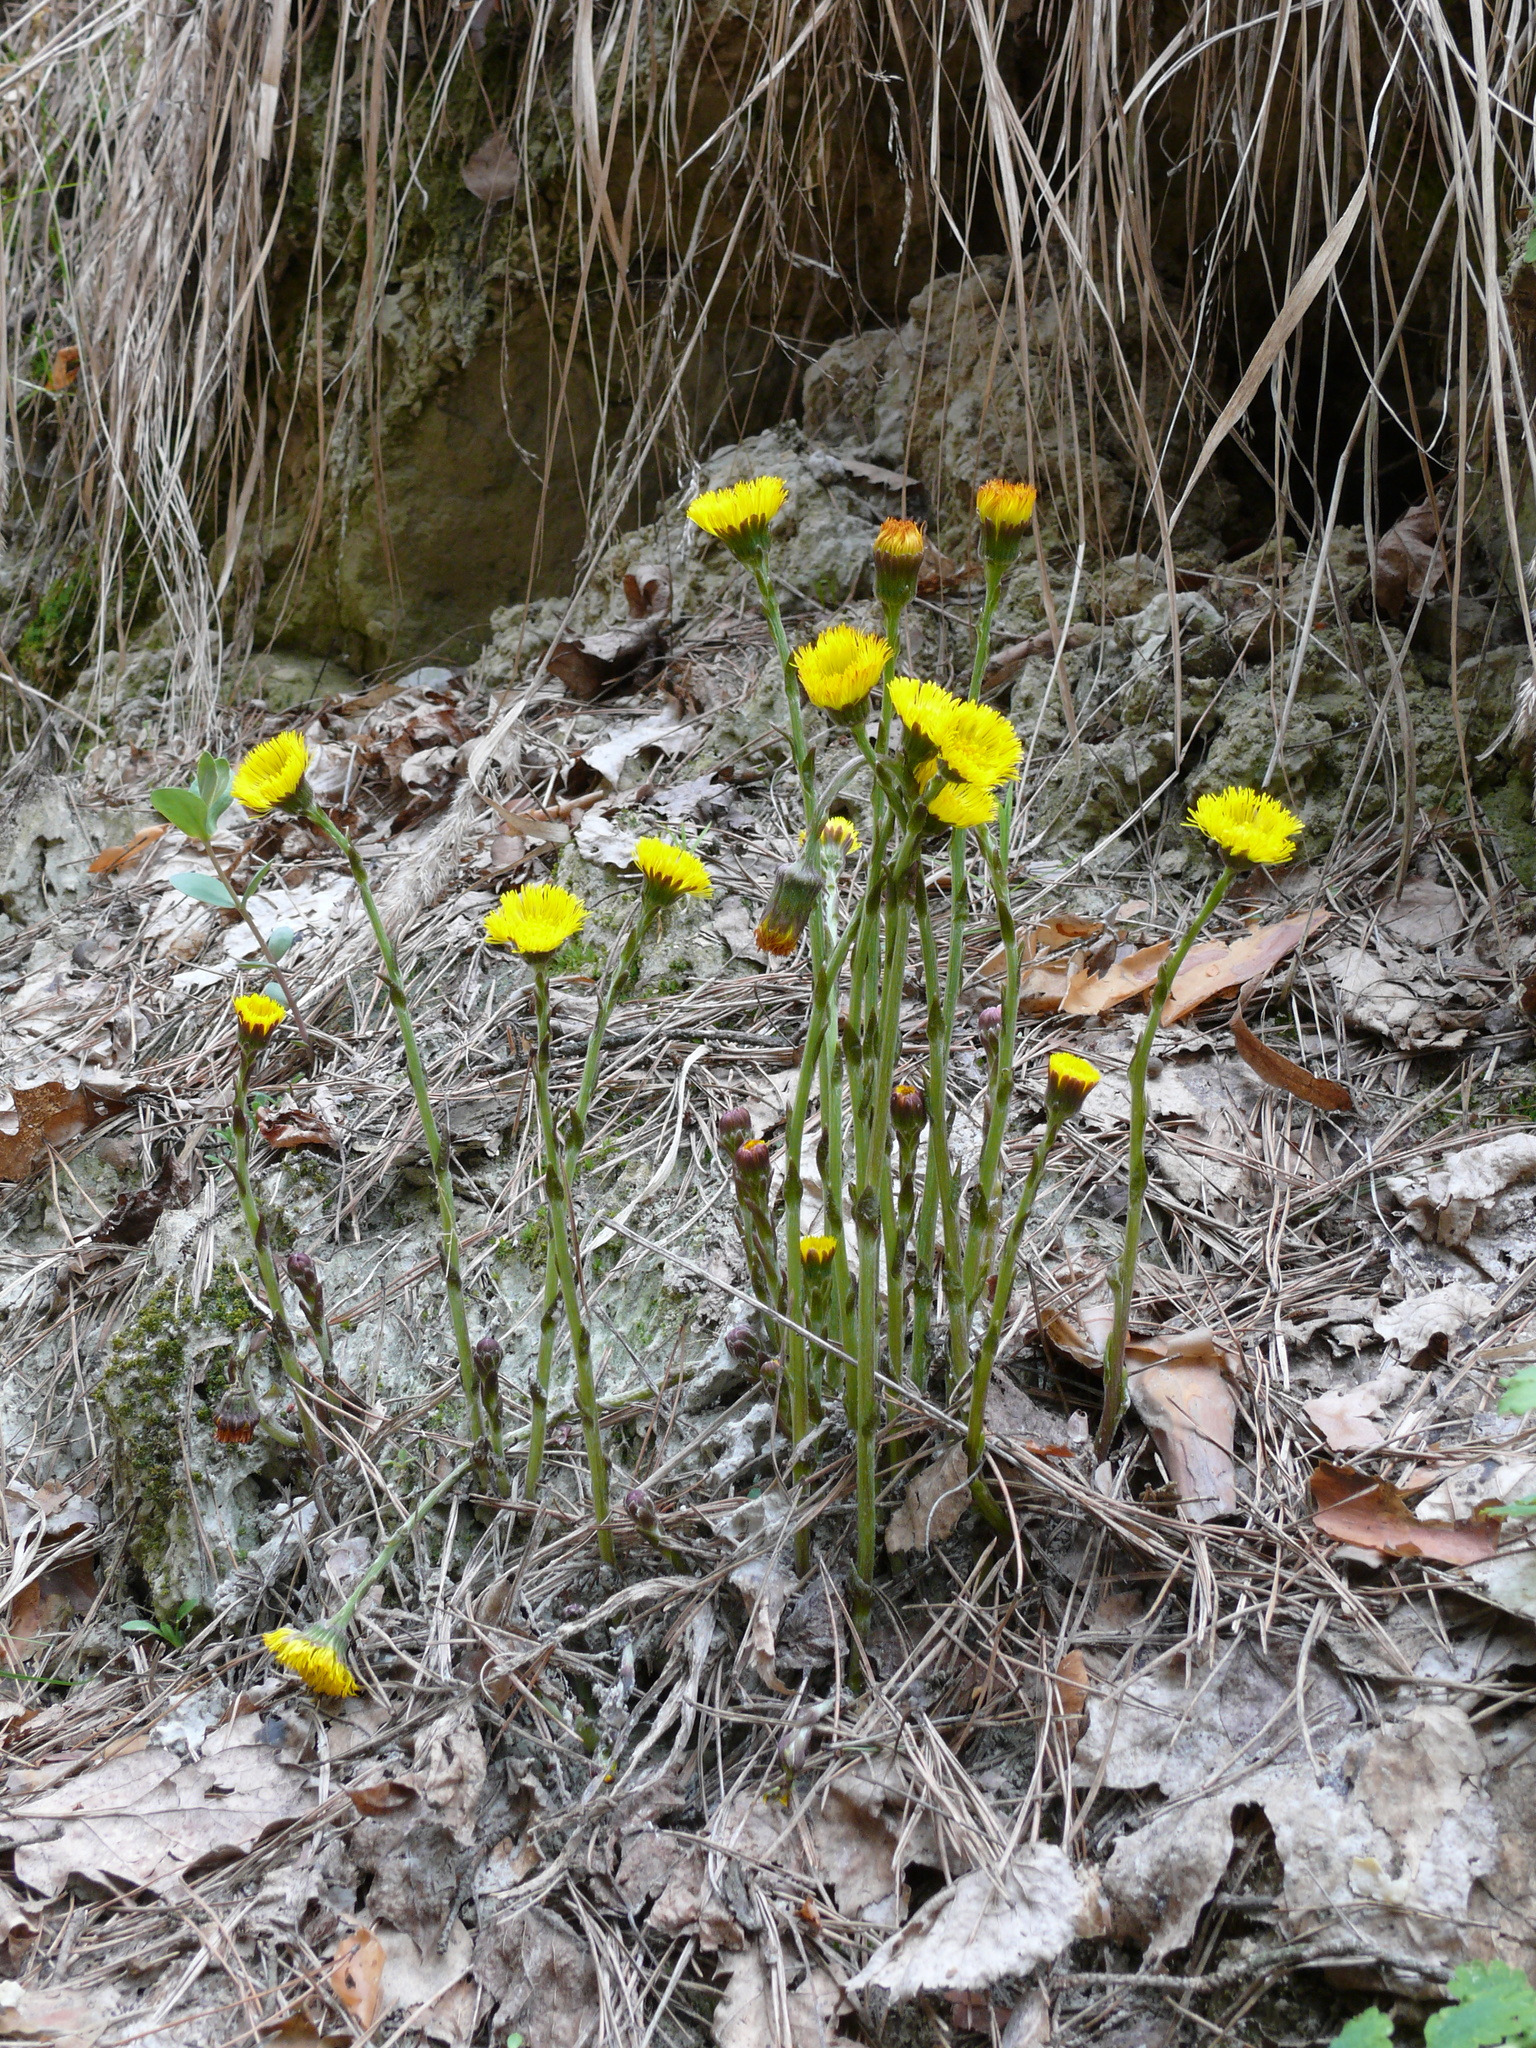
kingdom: Plantae
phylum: Tracheophyta
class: Magnoliopsida
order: Asterales
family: Asteraceae
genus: Tussilago
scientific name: Tussilago farfara
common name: Coltsfoot
